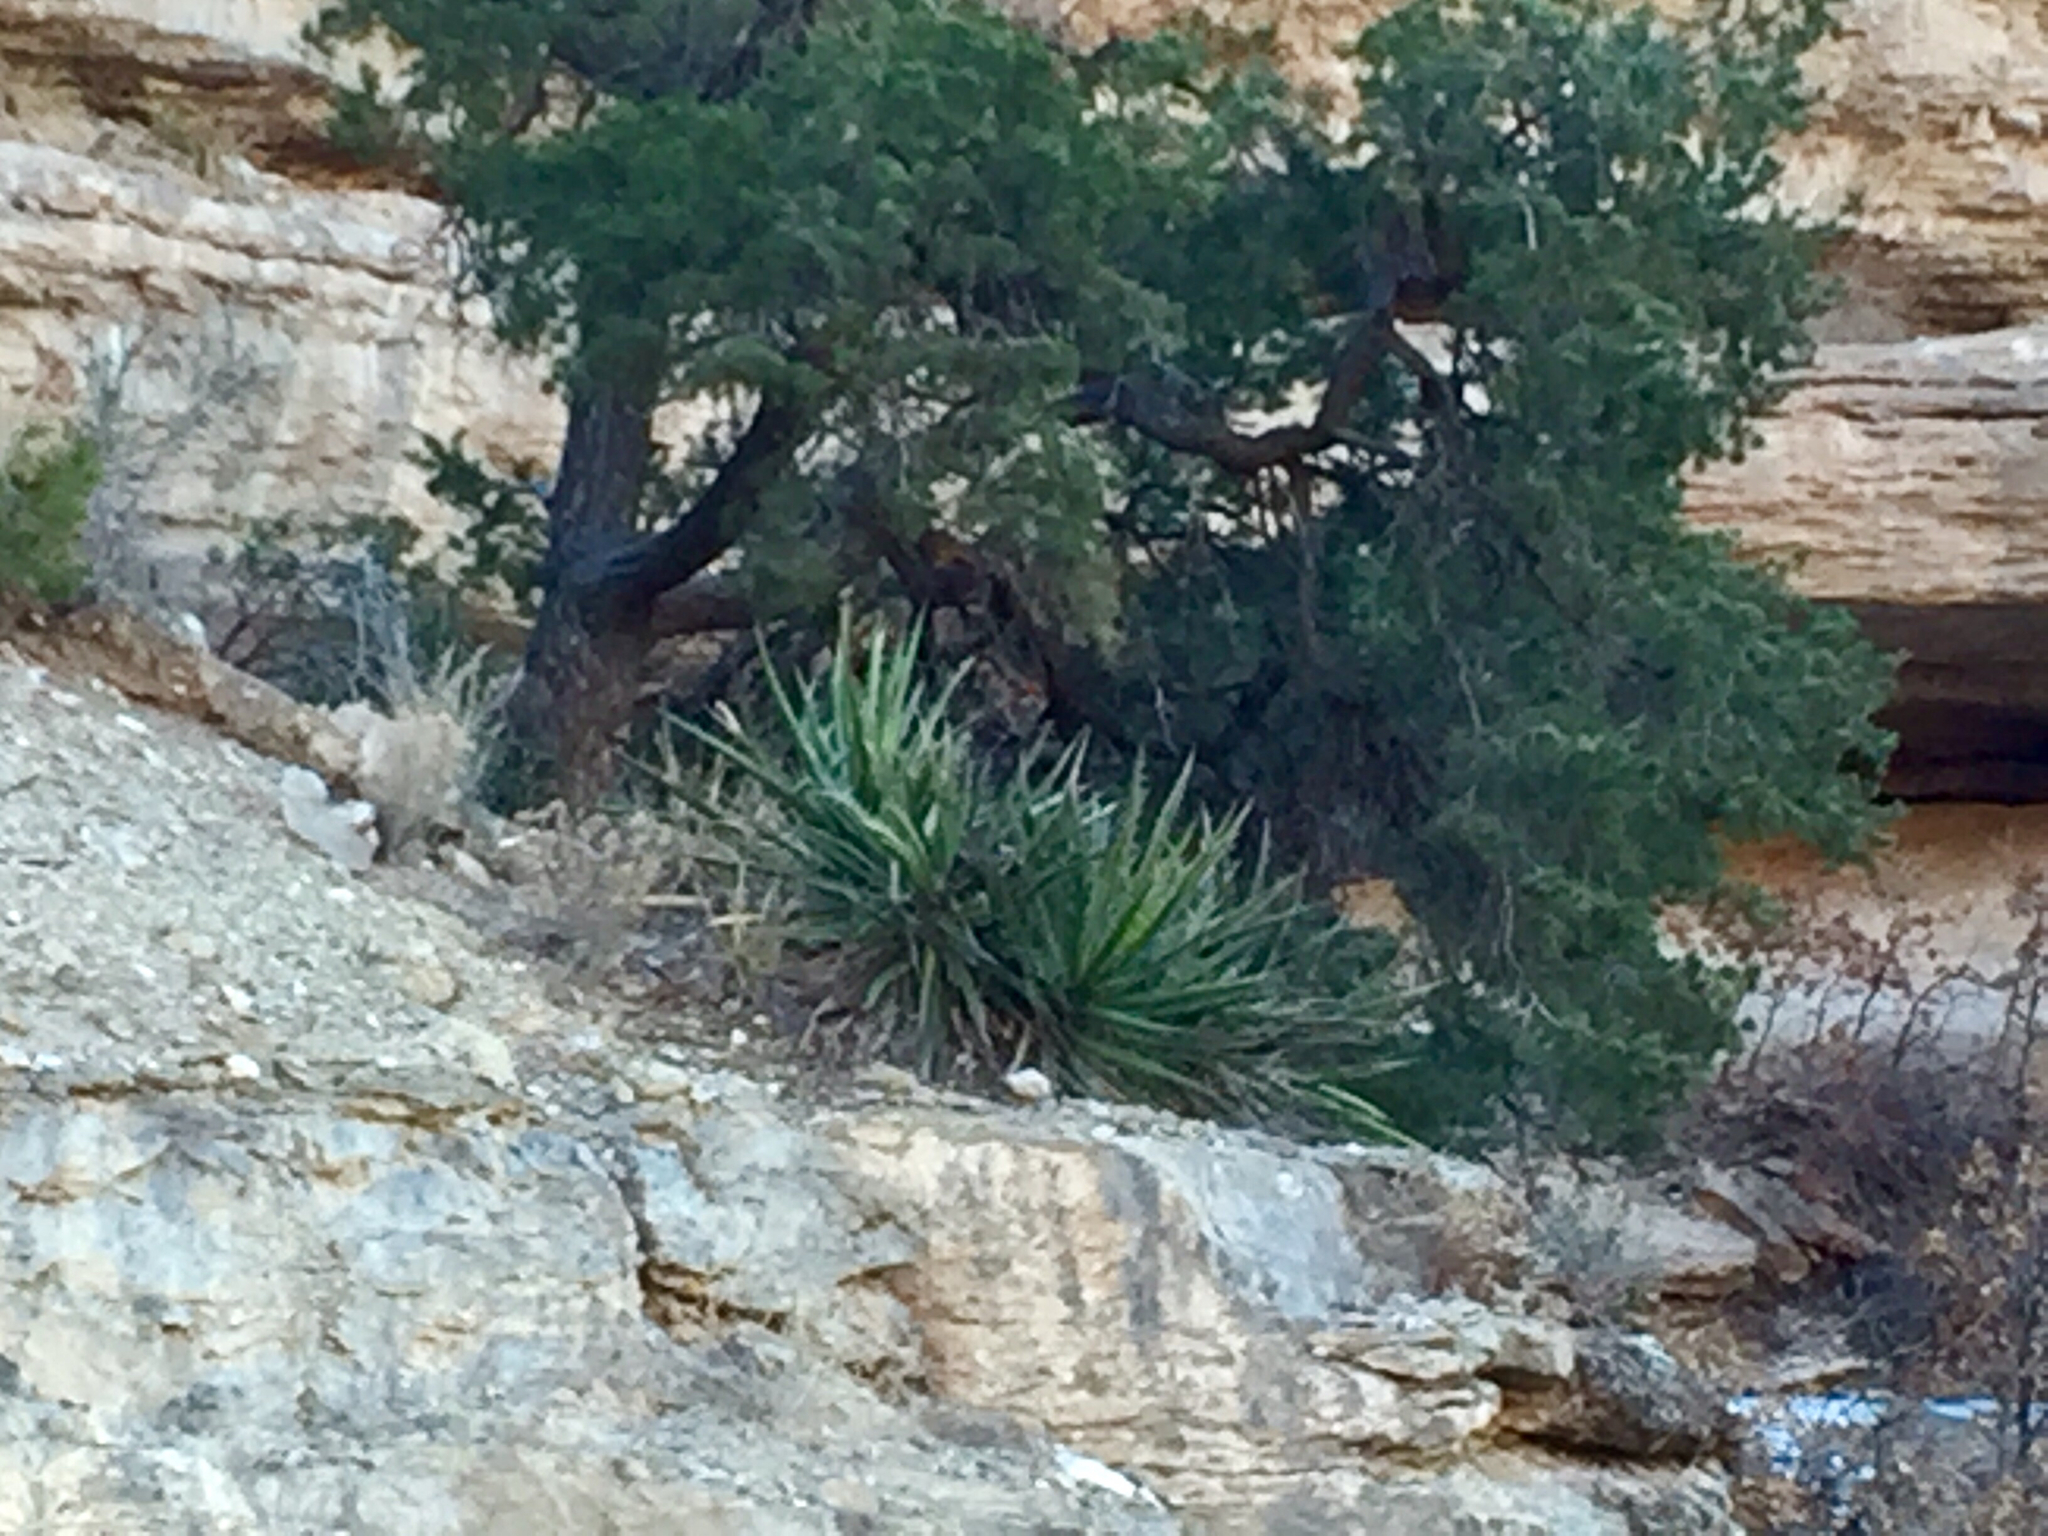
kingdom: Plantae
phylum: Tracheophyta
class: Liliopsida
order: Asparagales
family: Asparagaceae
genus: Yucca
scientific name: Yucca baccata
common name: Banana yucca
